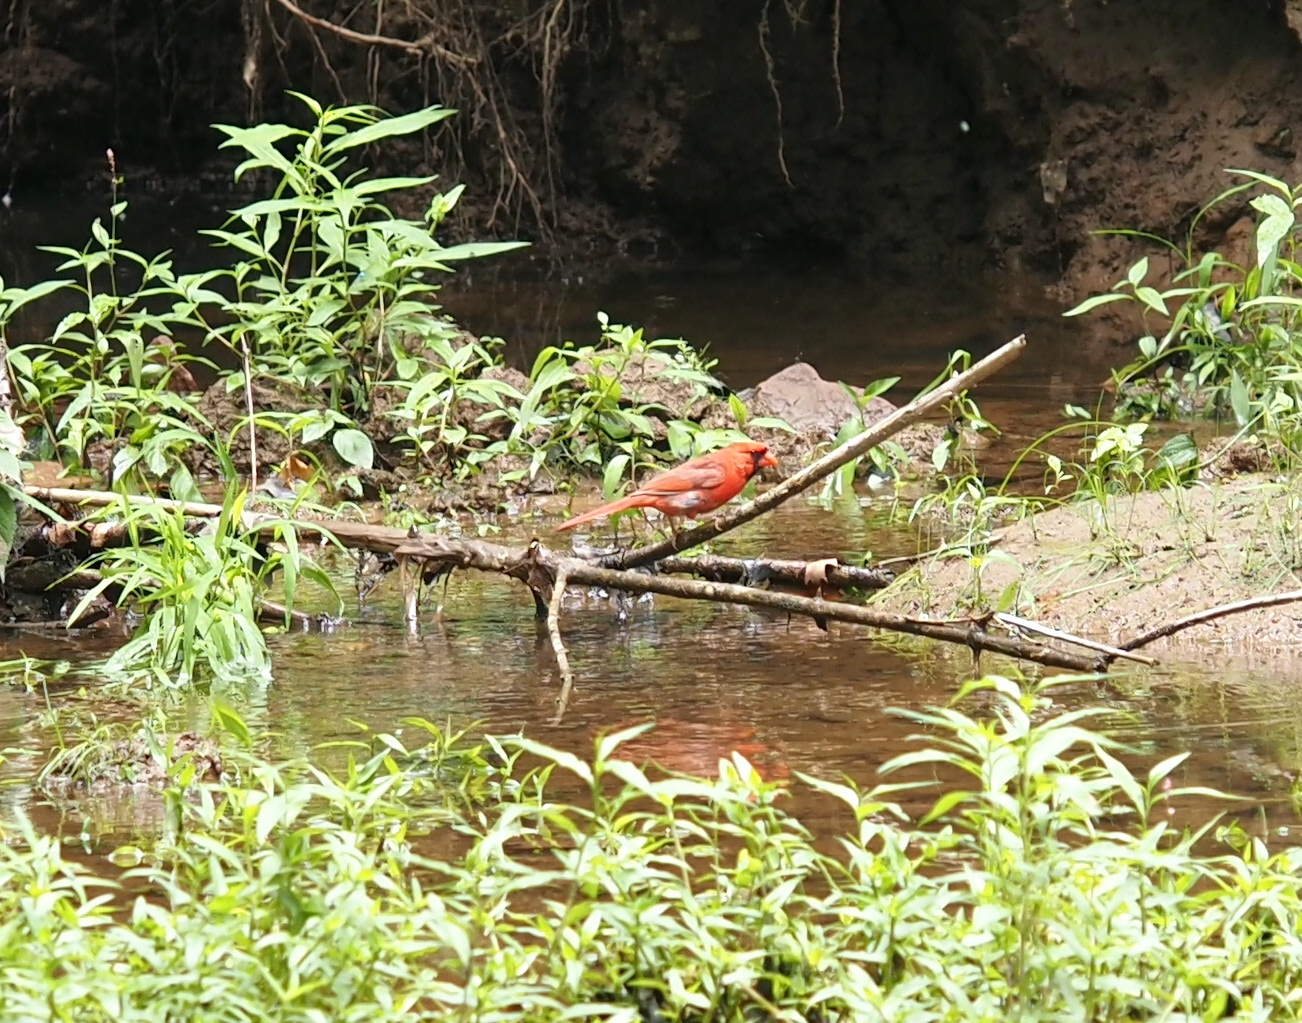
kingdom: Animalia
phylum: Chordata
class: Aves
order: Passeriformes
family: Cardinalidae
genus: Cardinalis
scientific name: Cardinalis cardinalis
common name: Northern cardinal
